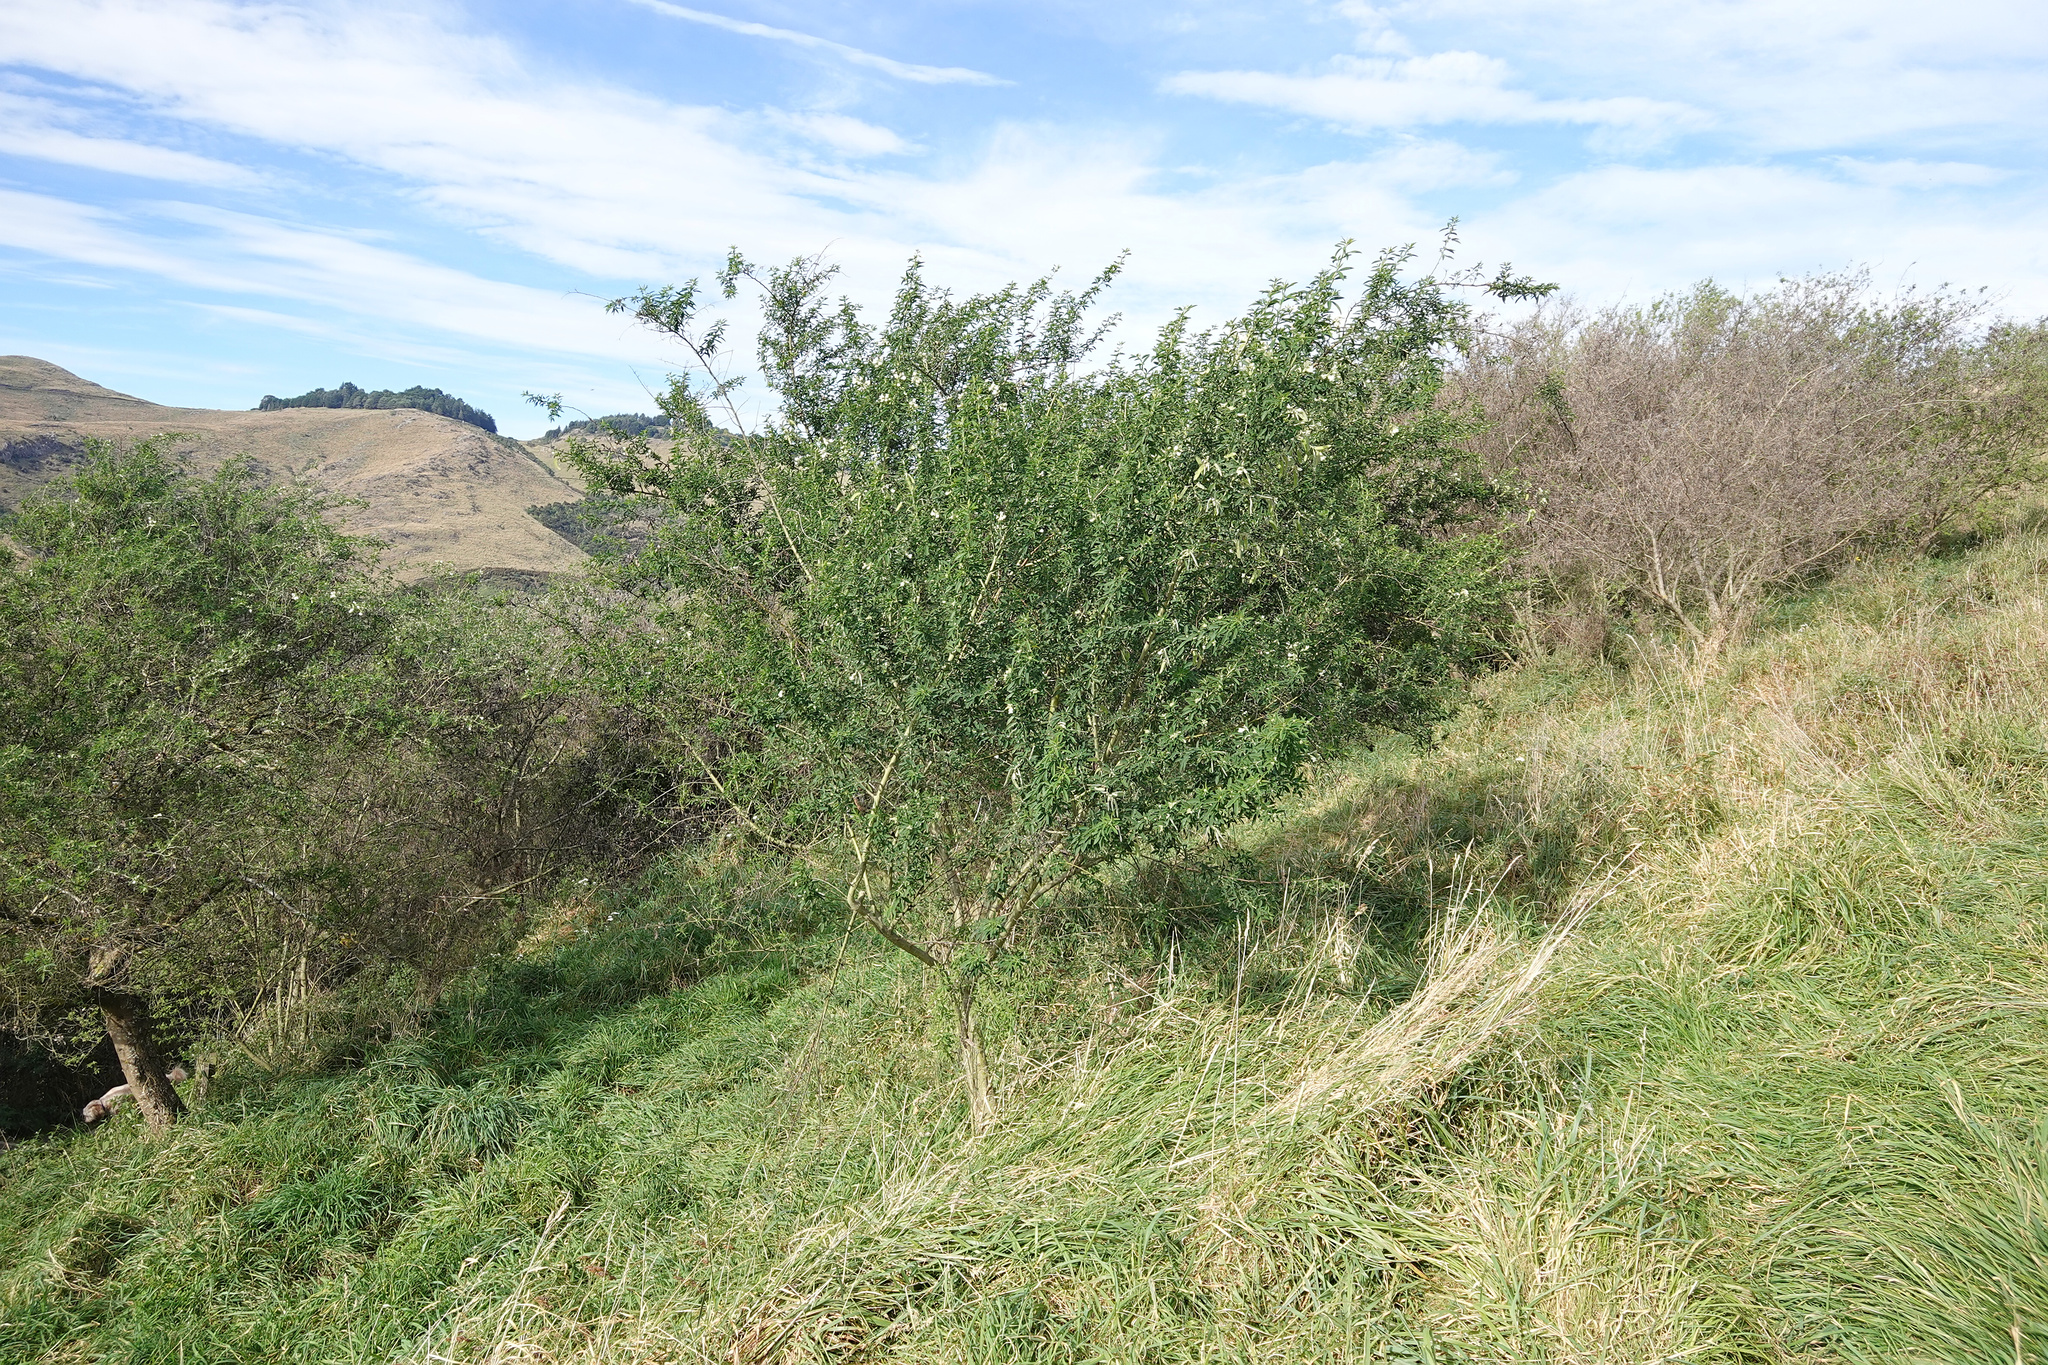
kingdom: Plantae
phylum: Tracheophyta
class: Magnoliopsida
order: Fabales
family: Fabaceae
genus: Chamaecytisus
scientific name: Chamaecytisus prolifer
